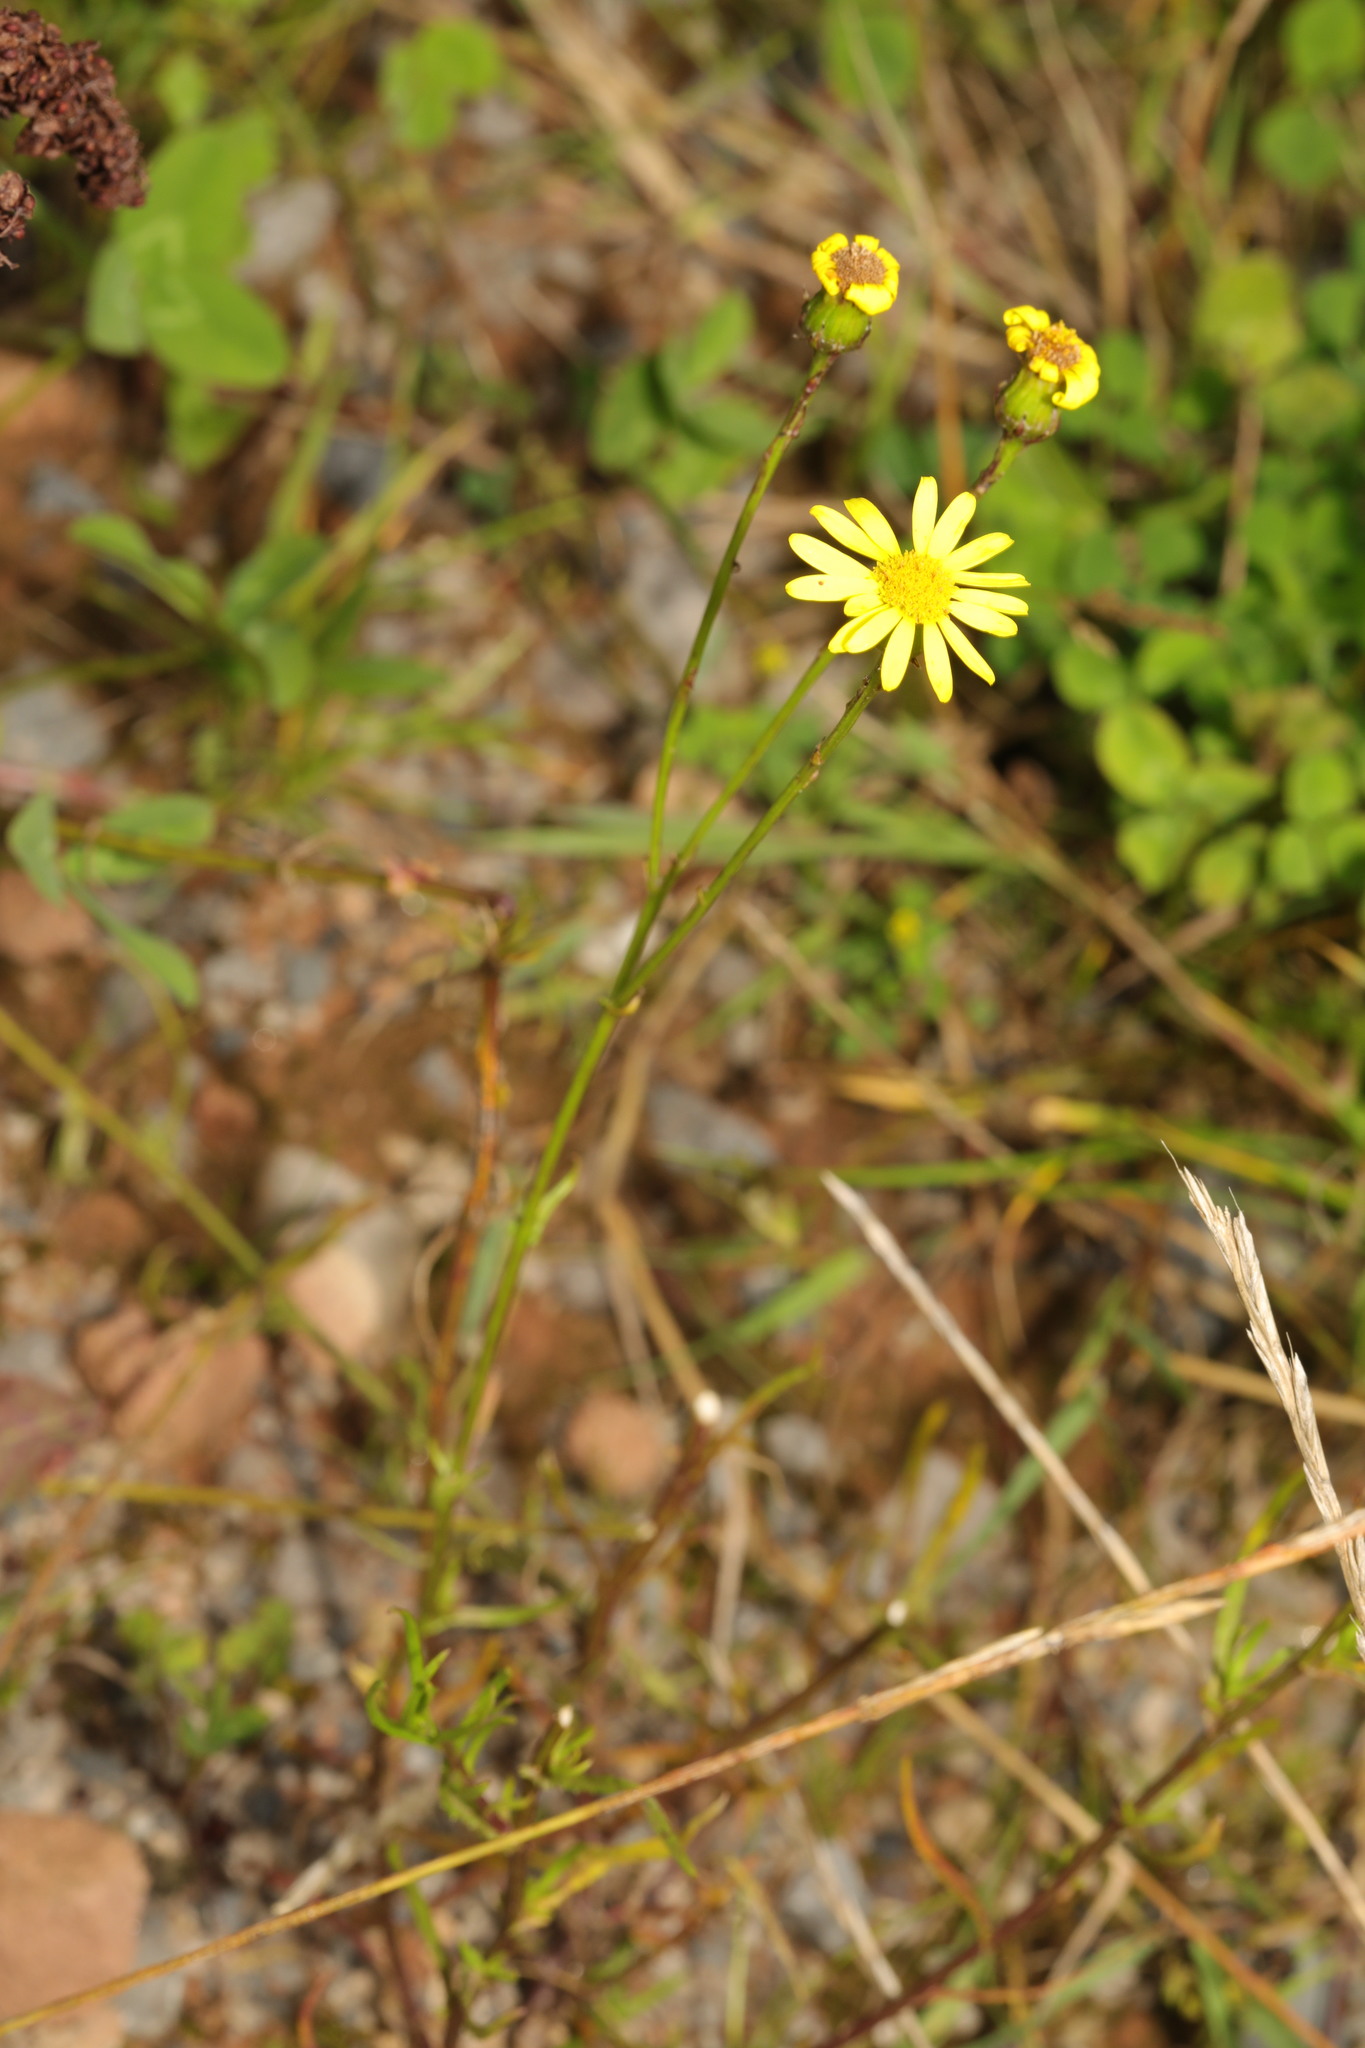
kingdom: Plantae
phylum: Tracheophyta
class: Magnoliopsida
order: Asterales
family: Asteraceae
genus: Senecio
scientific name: Senecio inaequidens
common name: Narrow-leaved ragwort
